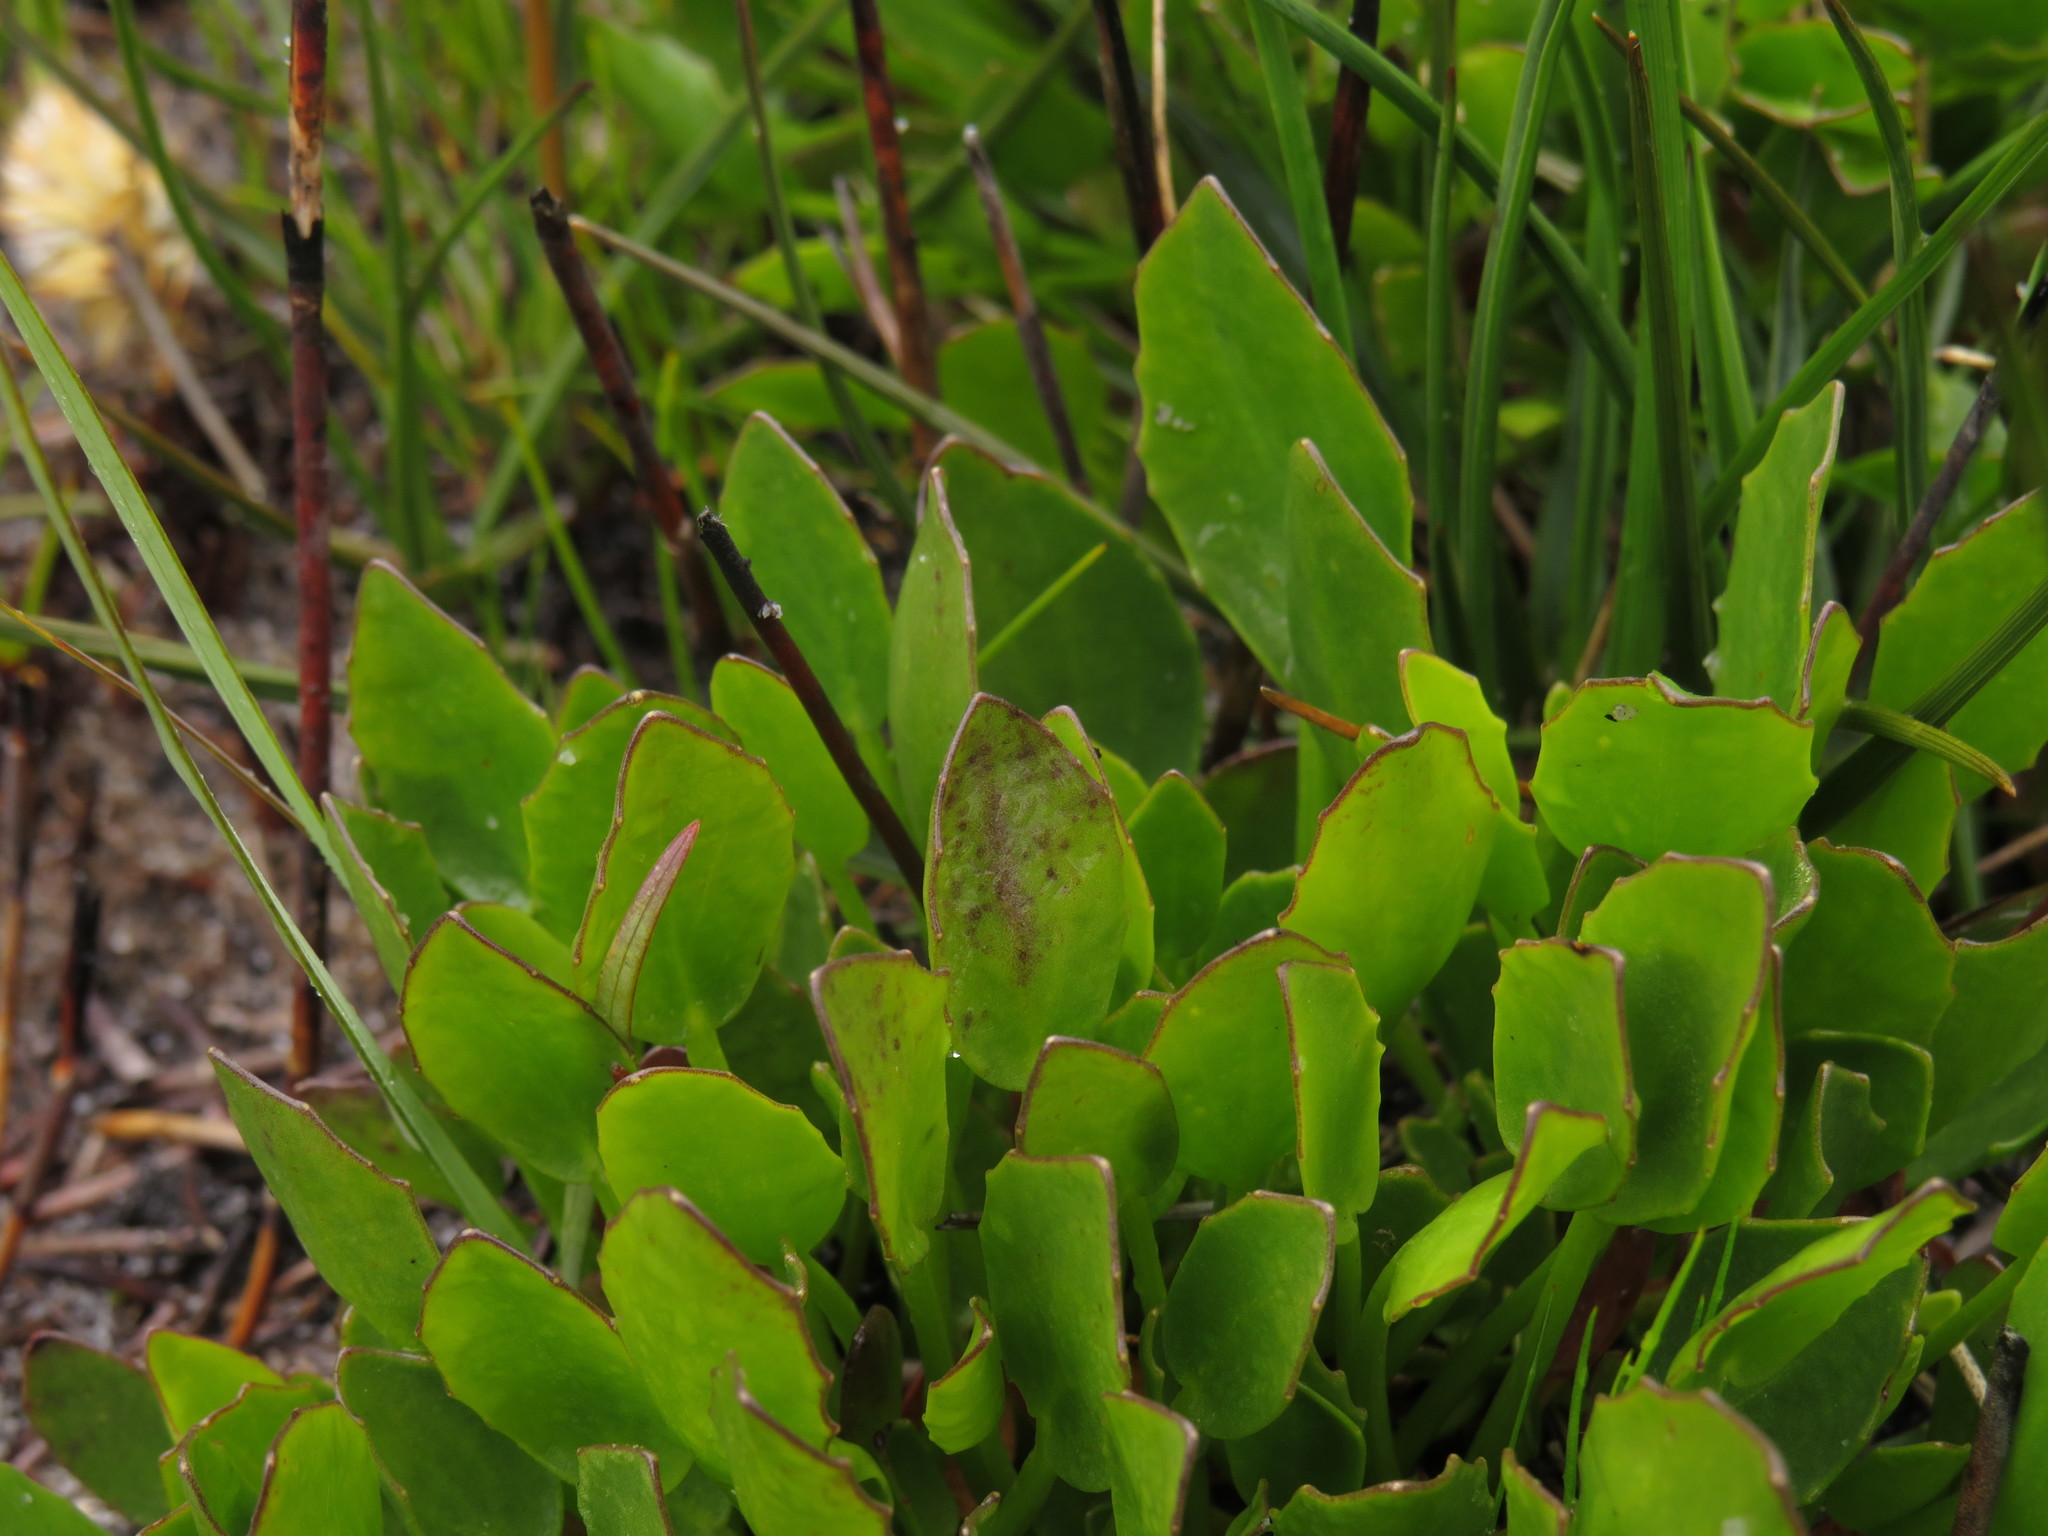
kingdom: Plantae
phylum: Tracheophyta
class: Magnoliopsida
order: Asterales
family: Menyanthaceae
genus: Villarsia
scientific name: Villarsia manningiana
